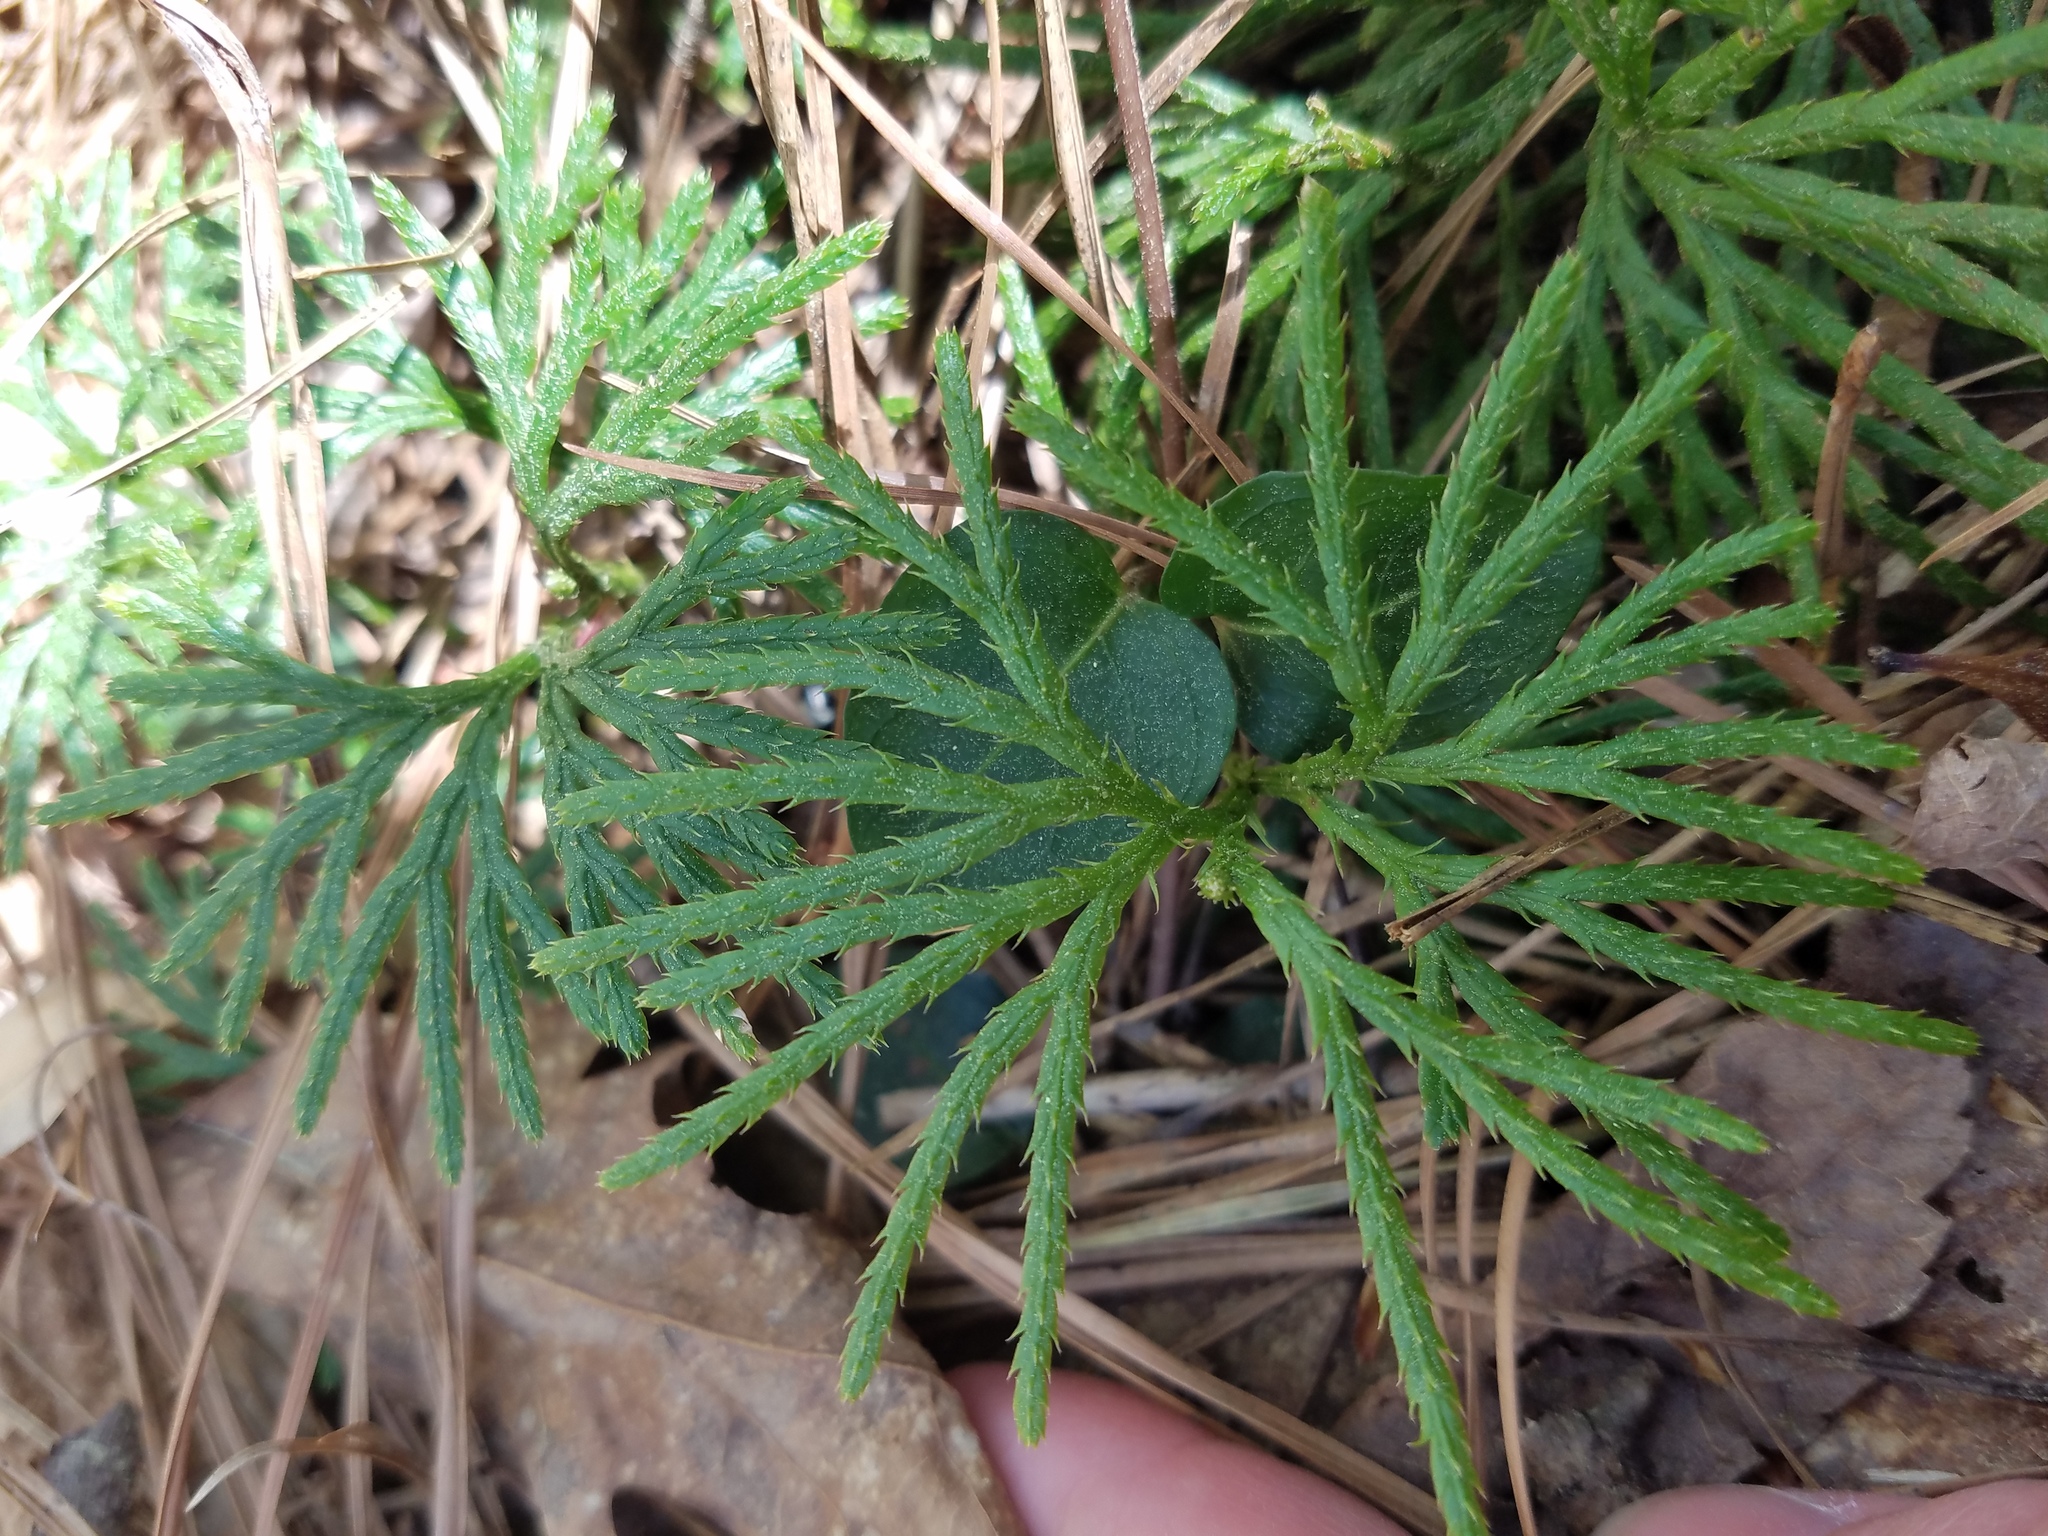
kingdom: Plantae
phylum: Tracheophyta
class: Lycopodiopsida
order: Lycopodiales
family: Lycopodiaceae
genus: Diphasiastrum
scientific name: Diphasiastrum digitatum
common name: Southern running-pine
